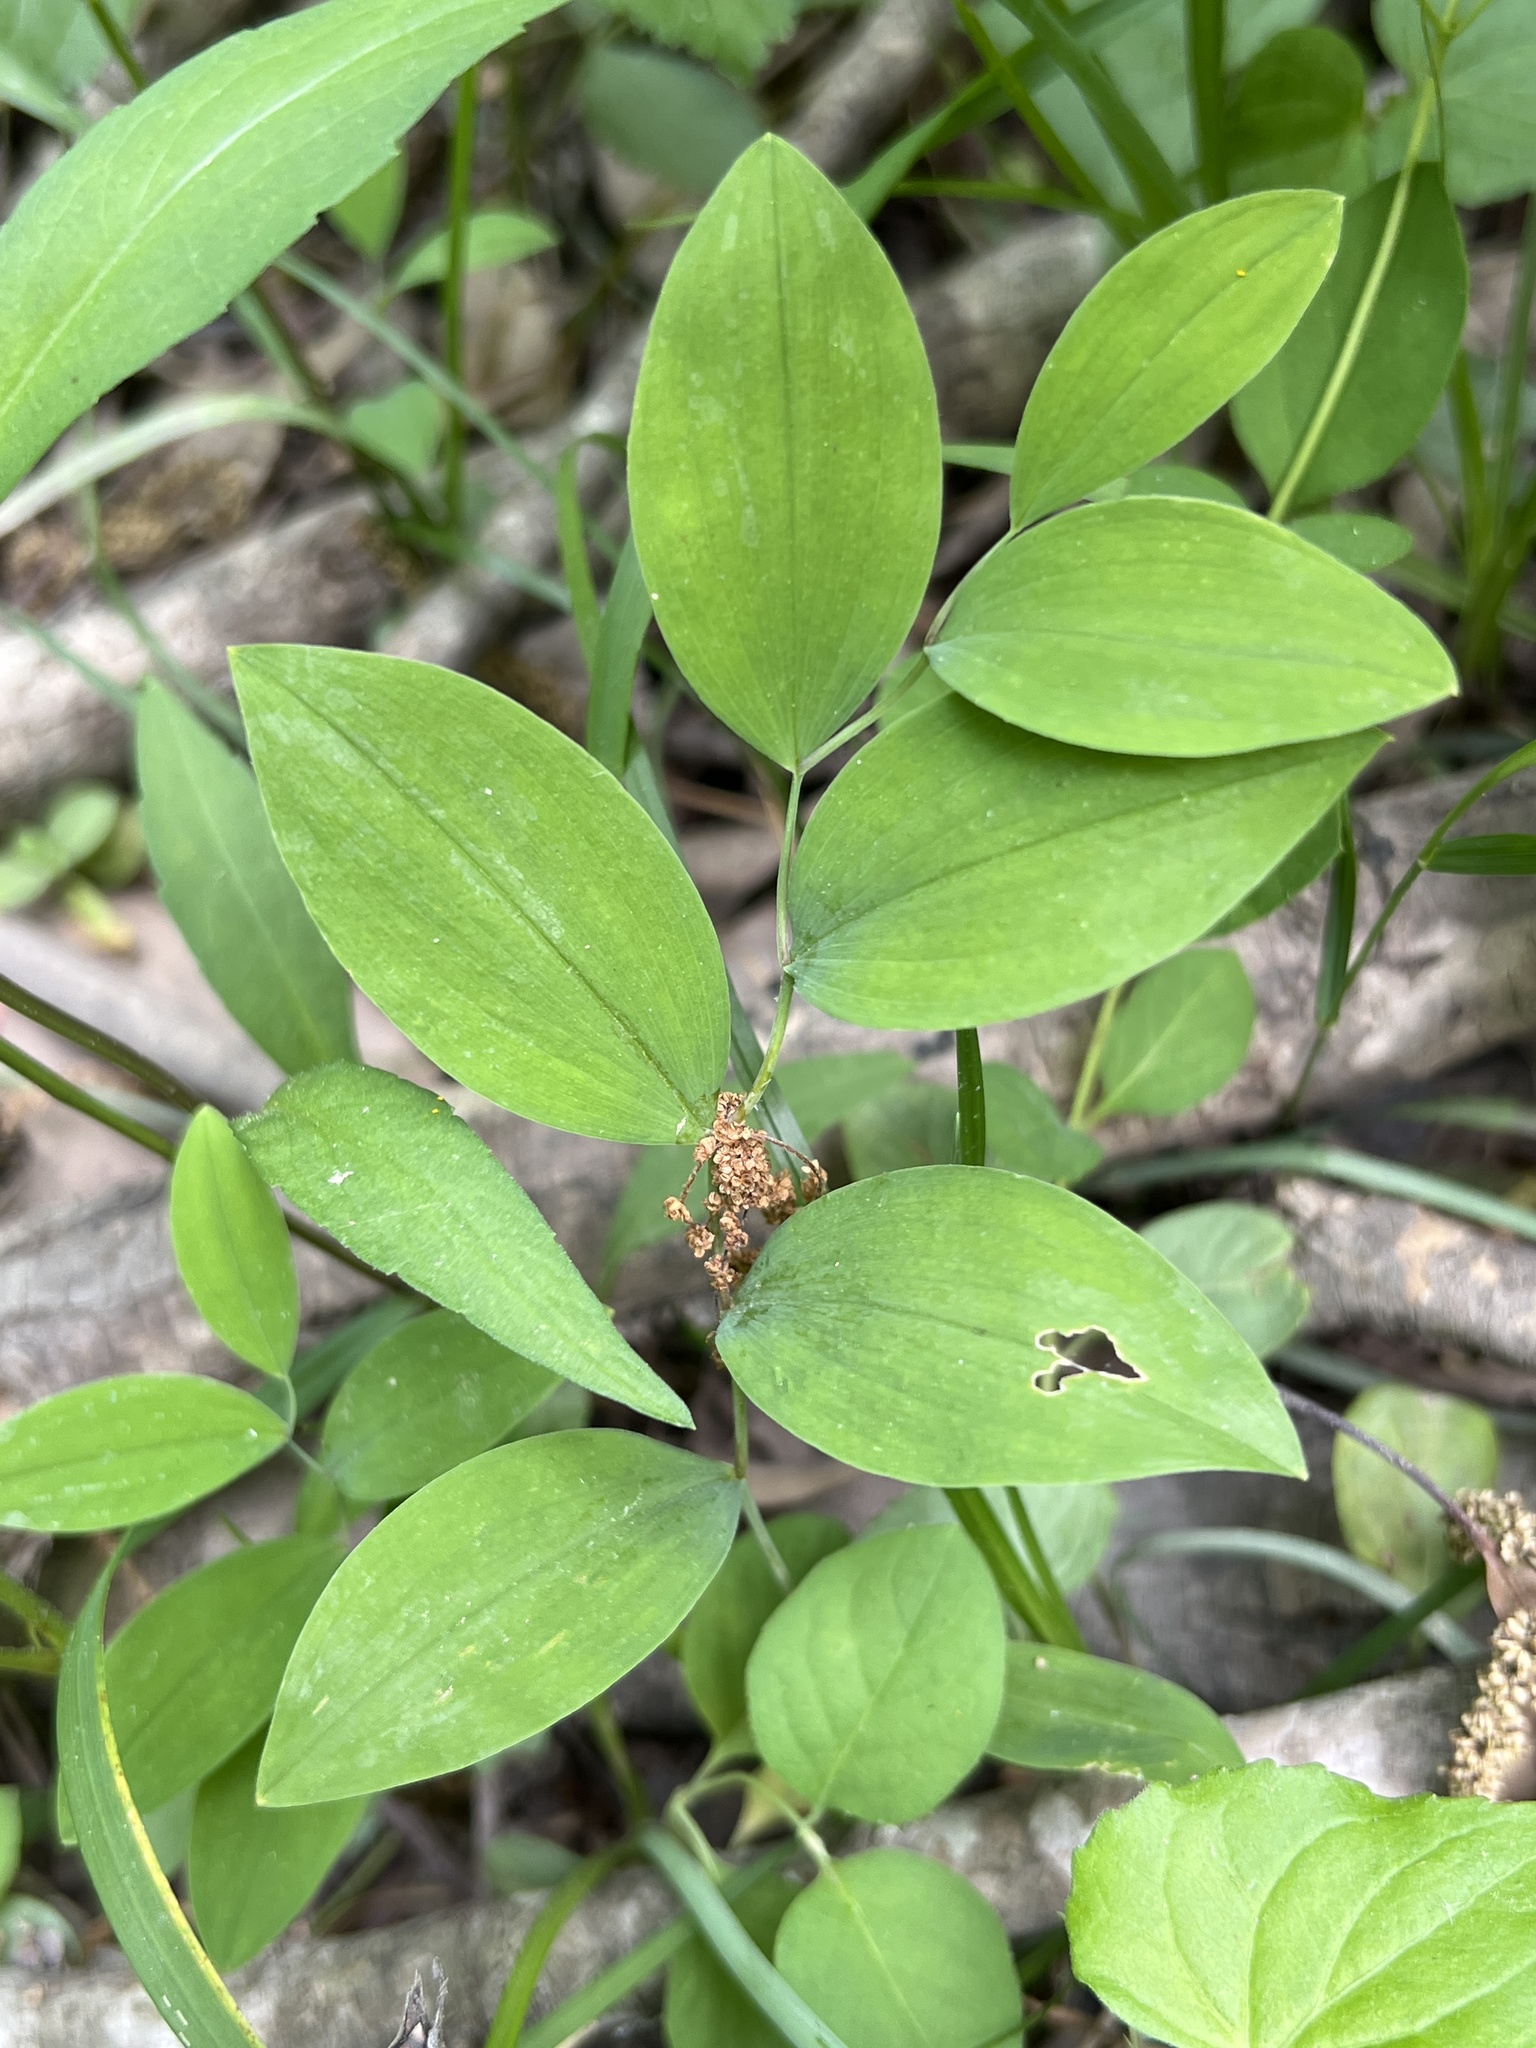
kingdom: Plantae
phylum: Tracheophyta
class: Liliopsida
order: Liliales
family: Colchicaceae
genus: Uvularia
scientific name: Uvularia sessilifolia
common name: Straw-lily
